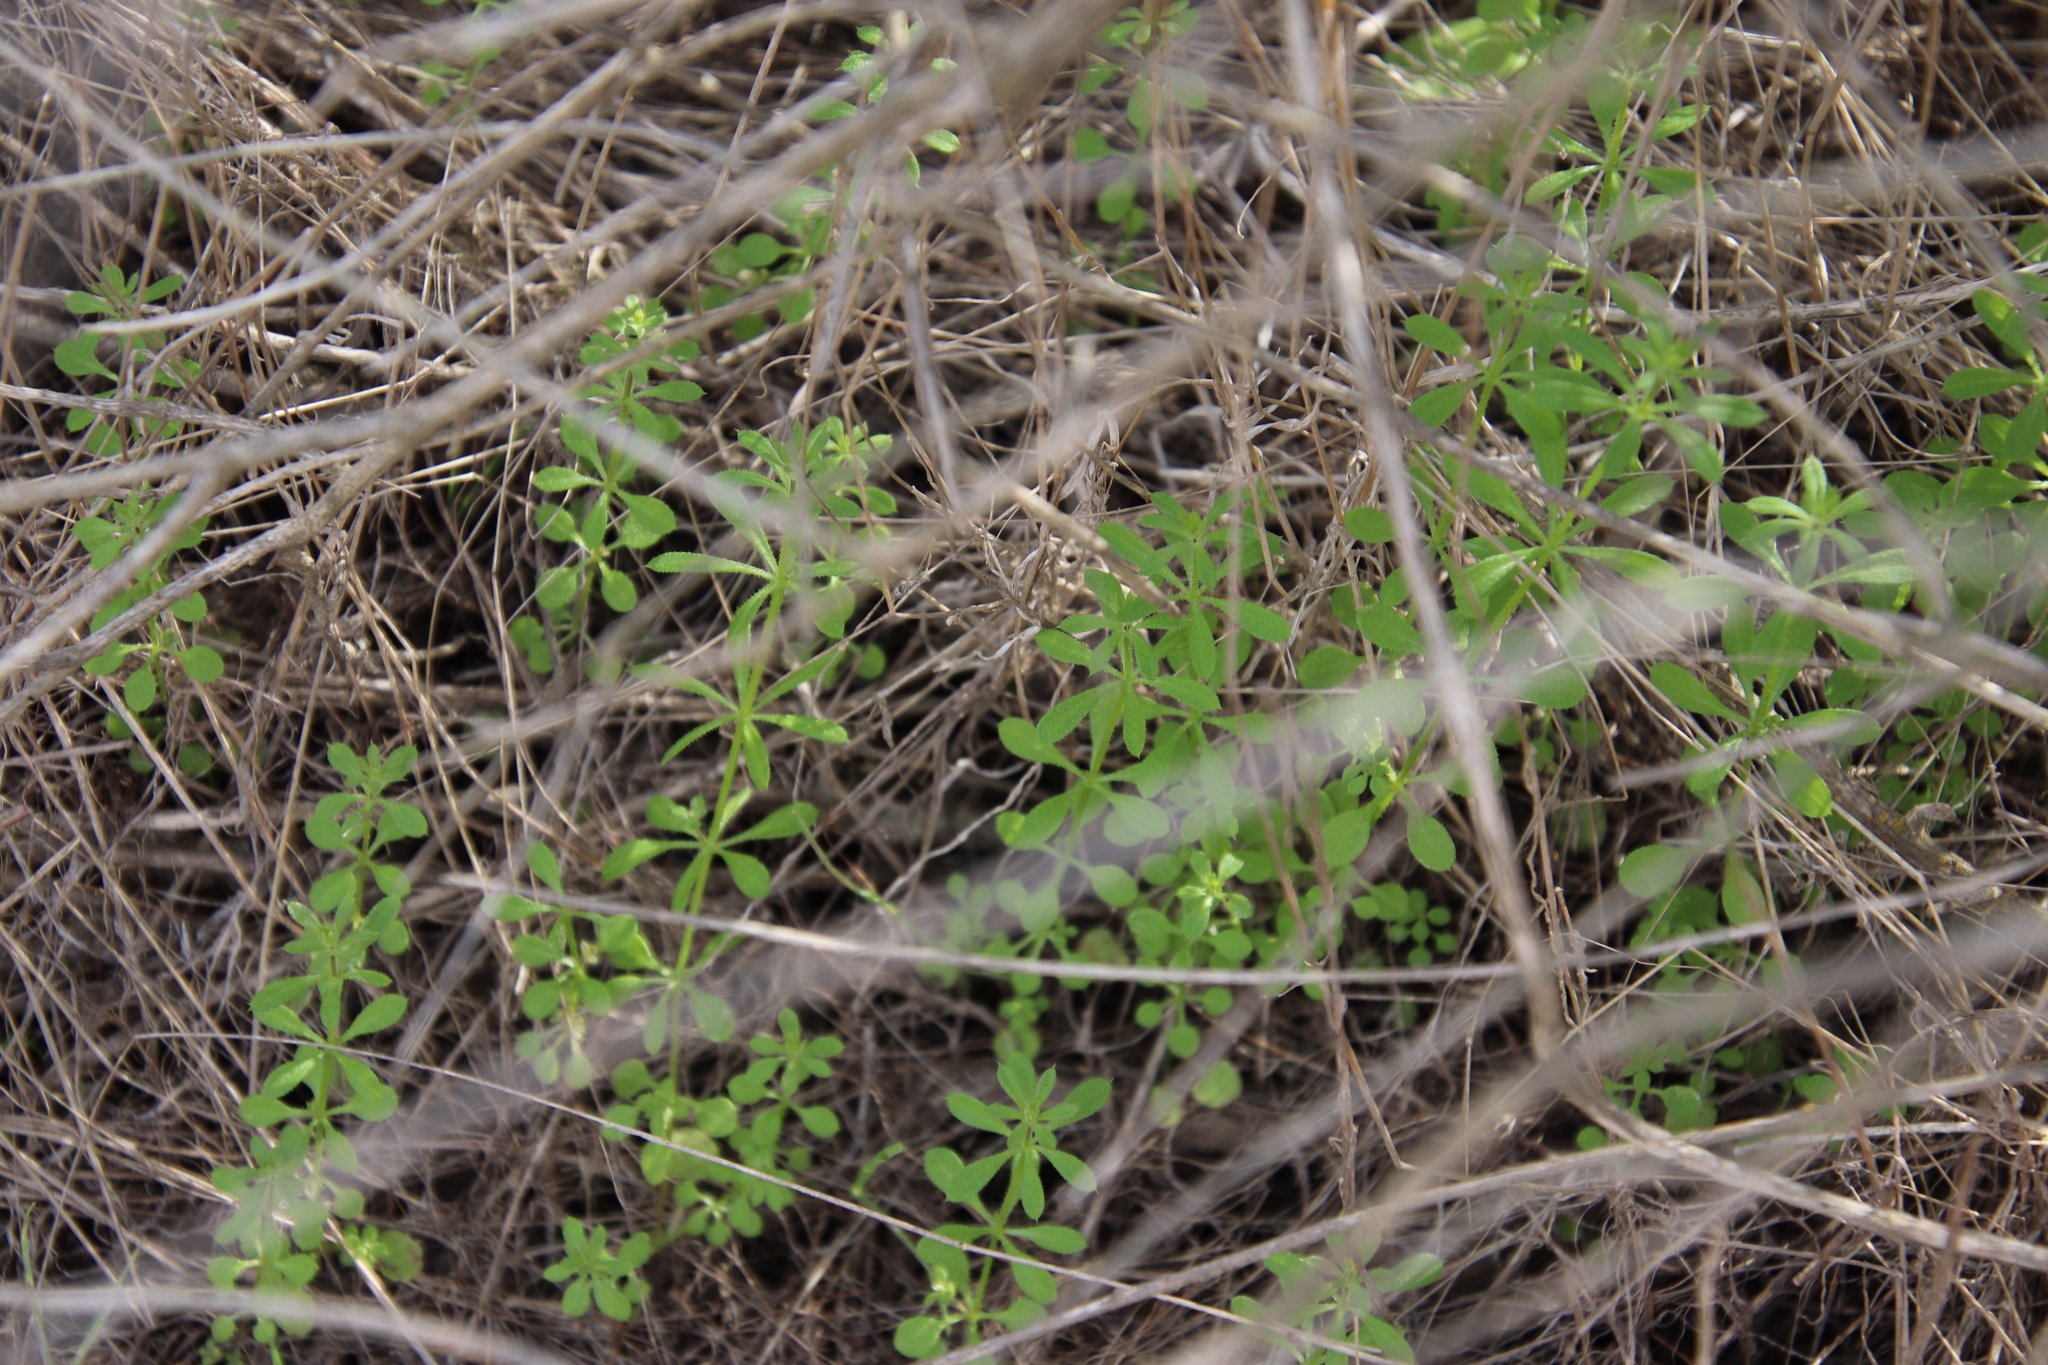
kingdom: Plantae
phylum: Tracheophyta
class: Magnoliopsida
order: Gentianales
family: Rubiaceae
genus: Galium
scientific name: Galium aparine
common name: Cleavers
